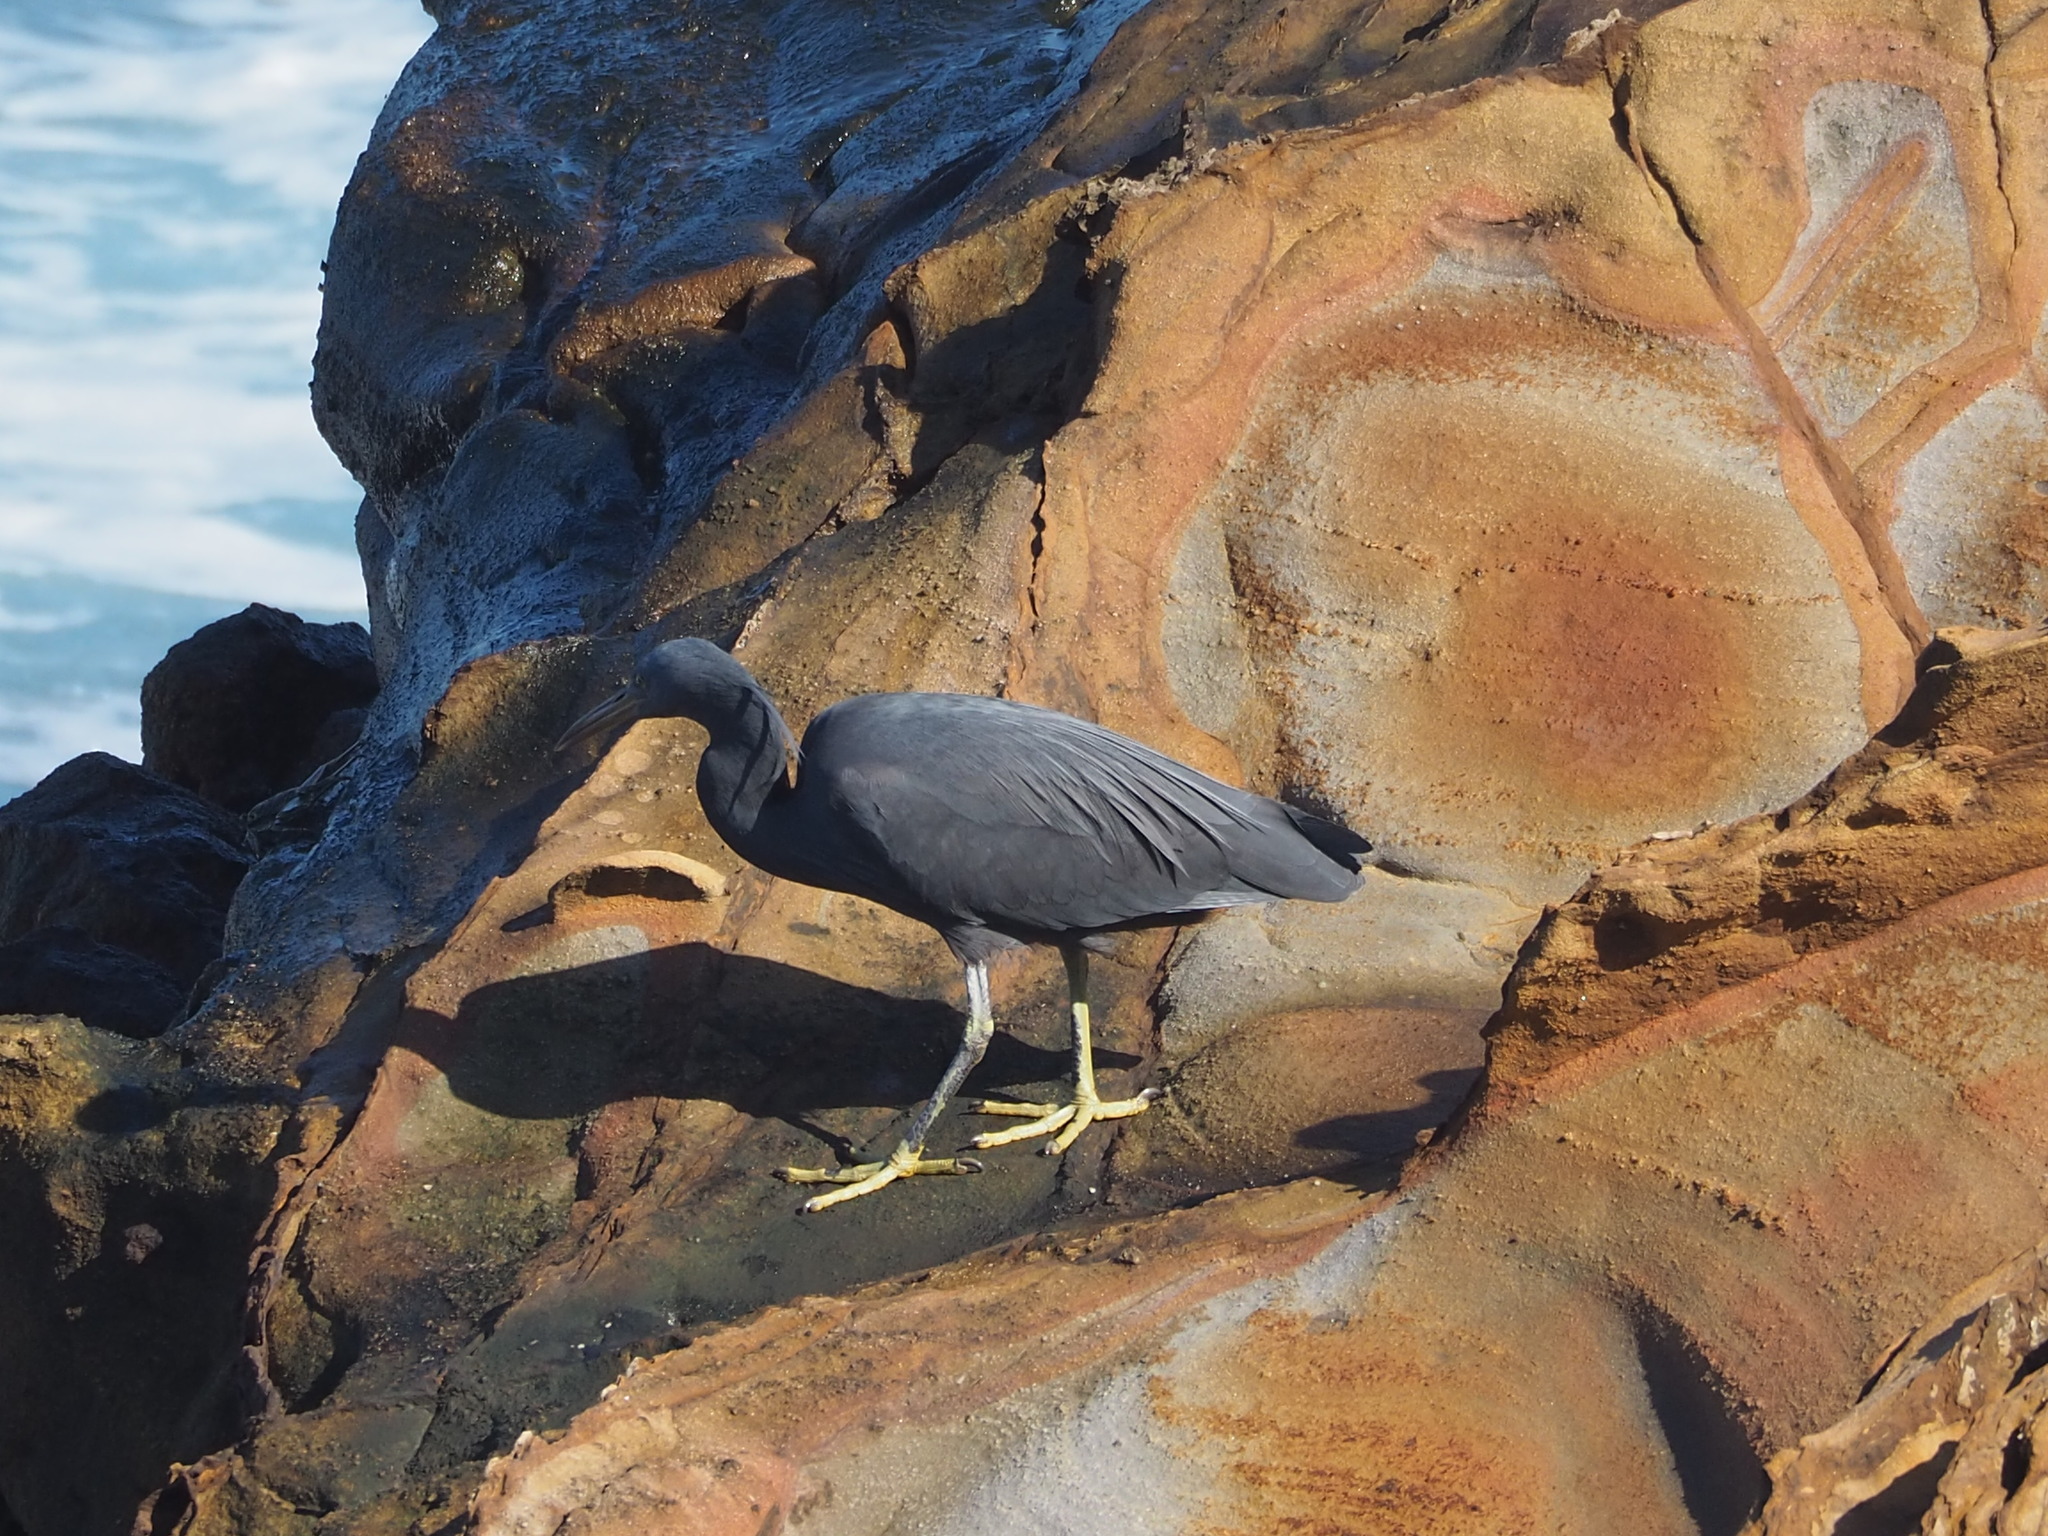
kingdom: Animalia
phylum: Chordata
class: Aves
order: Pelecaniformes
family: Ardeidae
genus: Egretta
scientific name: Egretta sacra
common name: Pacific reef heron
